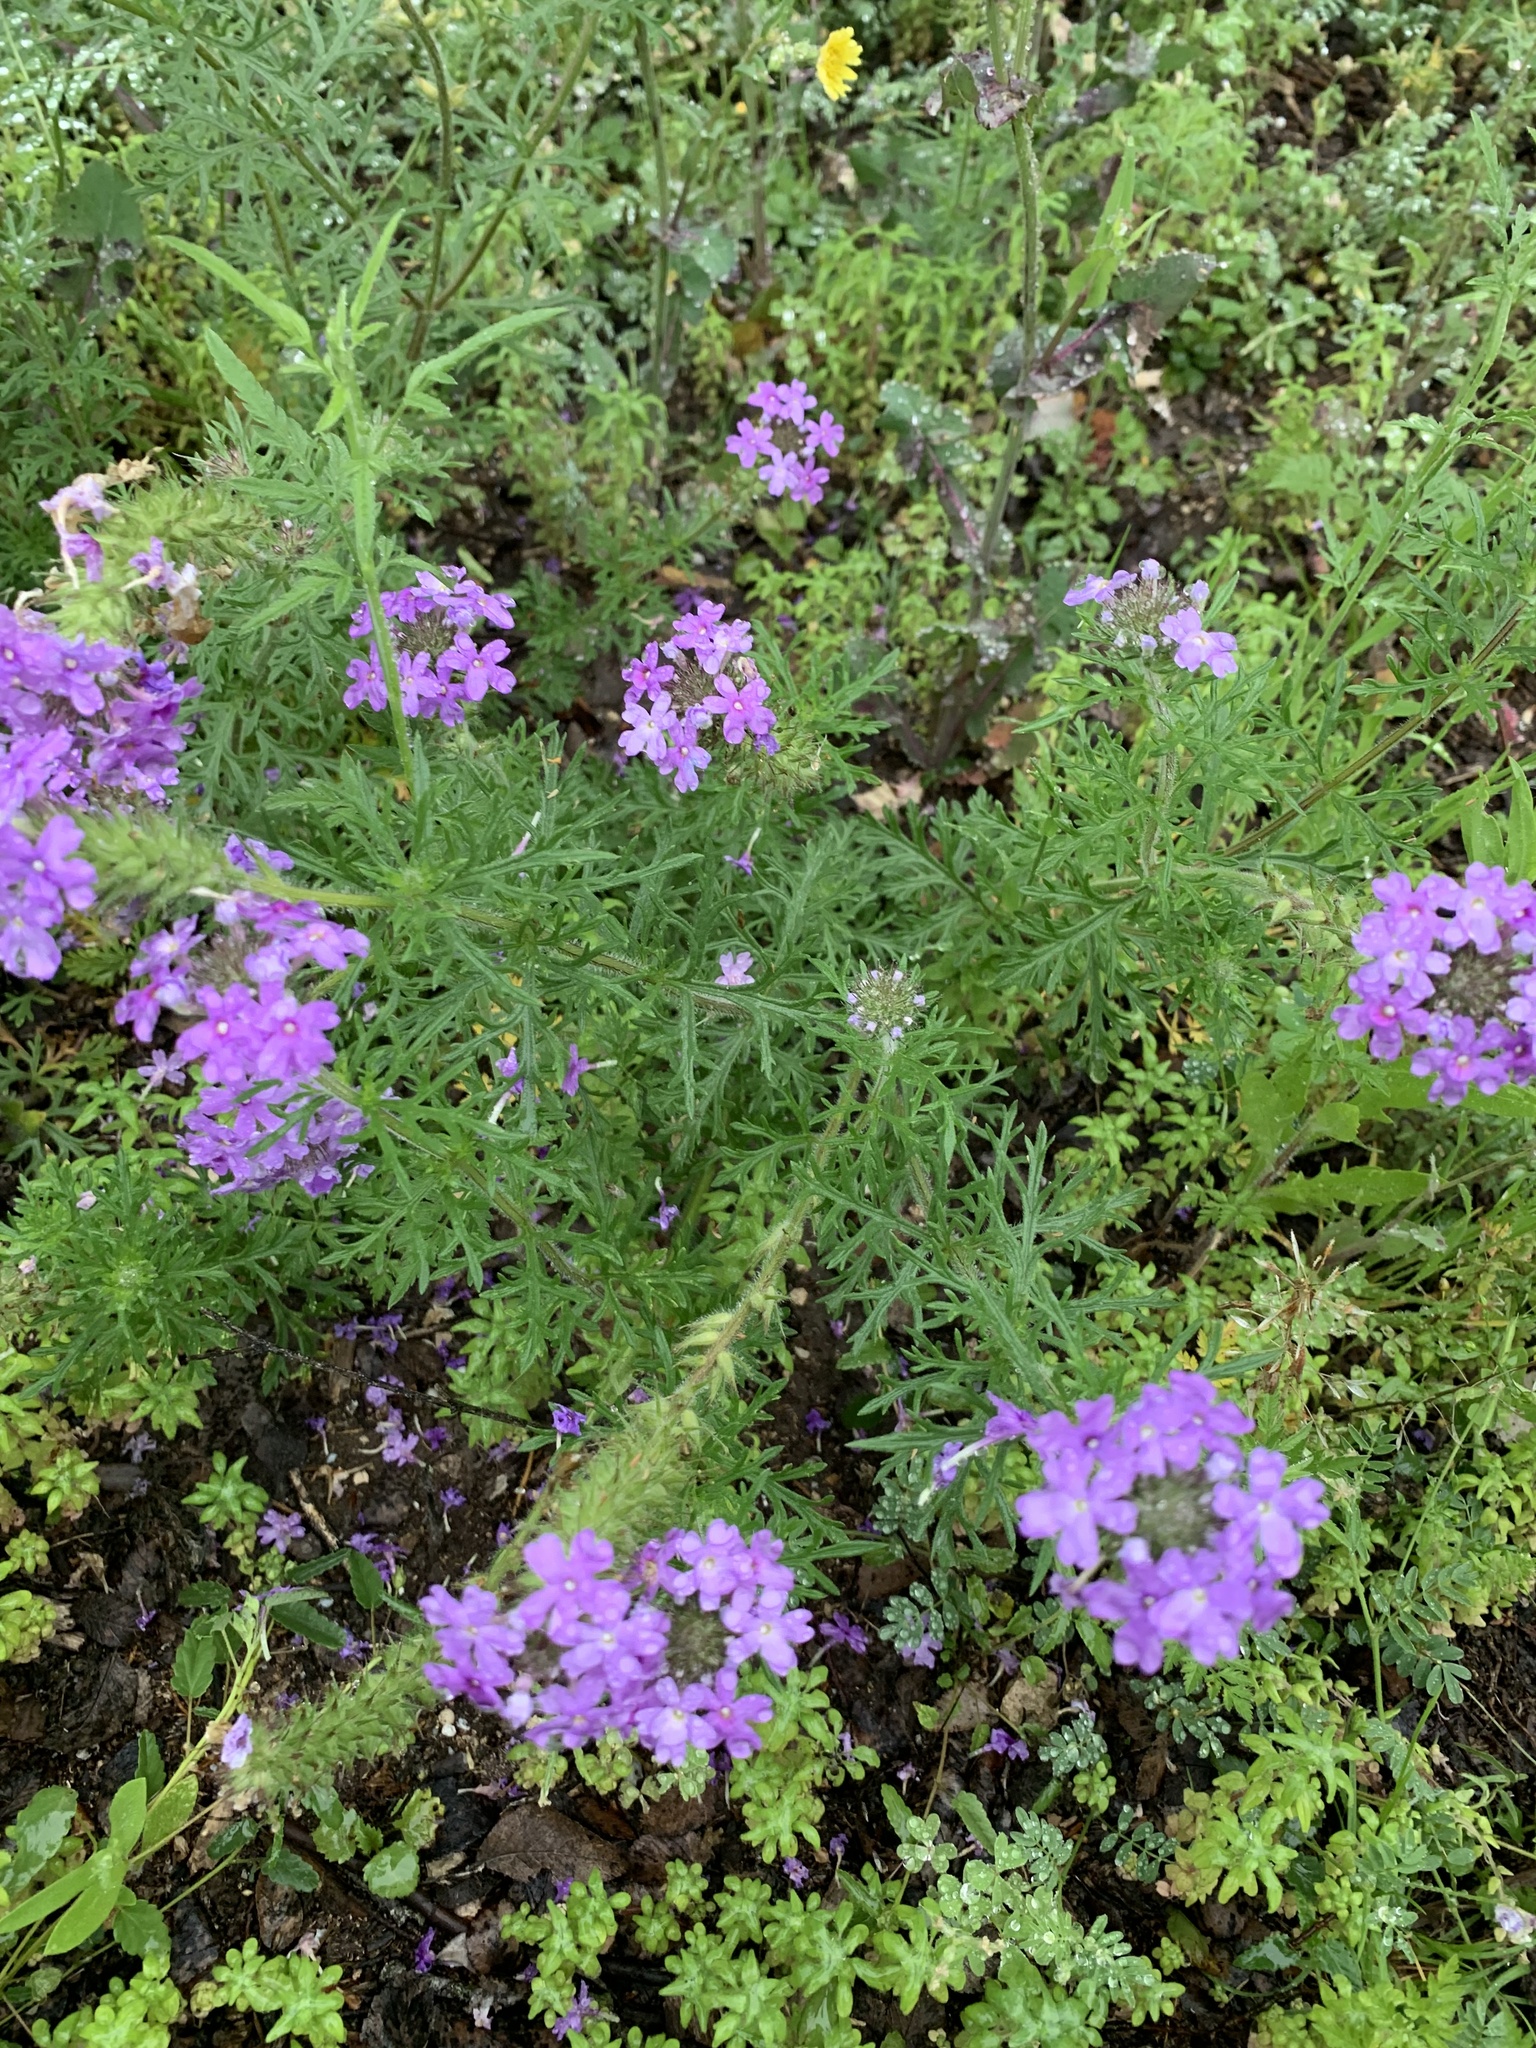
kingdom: Plantae
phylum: Tracheophyta
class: Magnoliopsida
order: Lamiales
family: Verbenaceae
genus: Verbena
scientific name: Verbena
